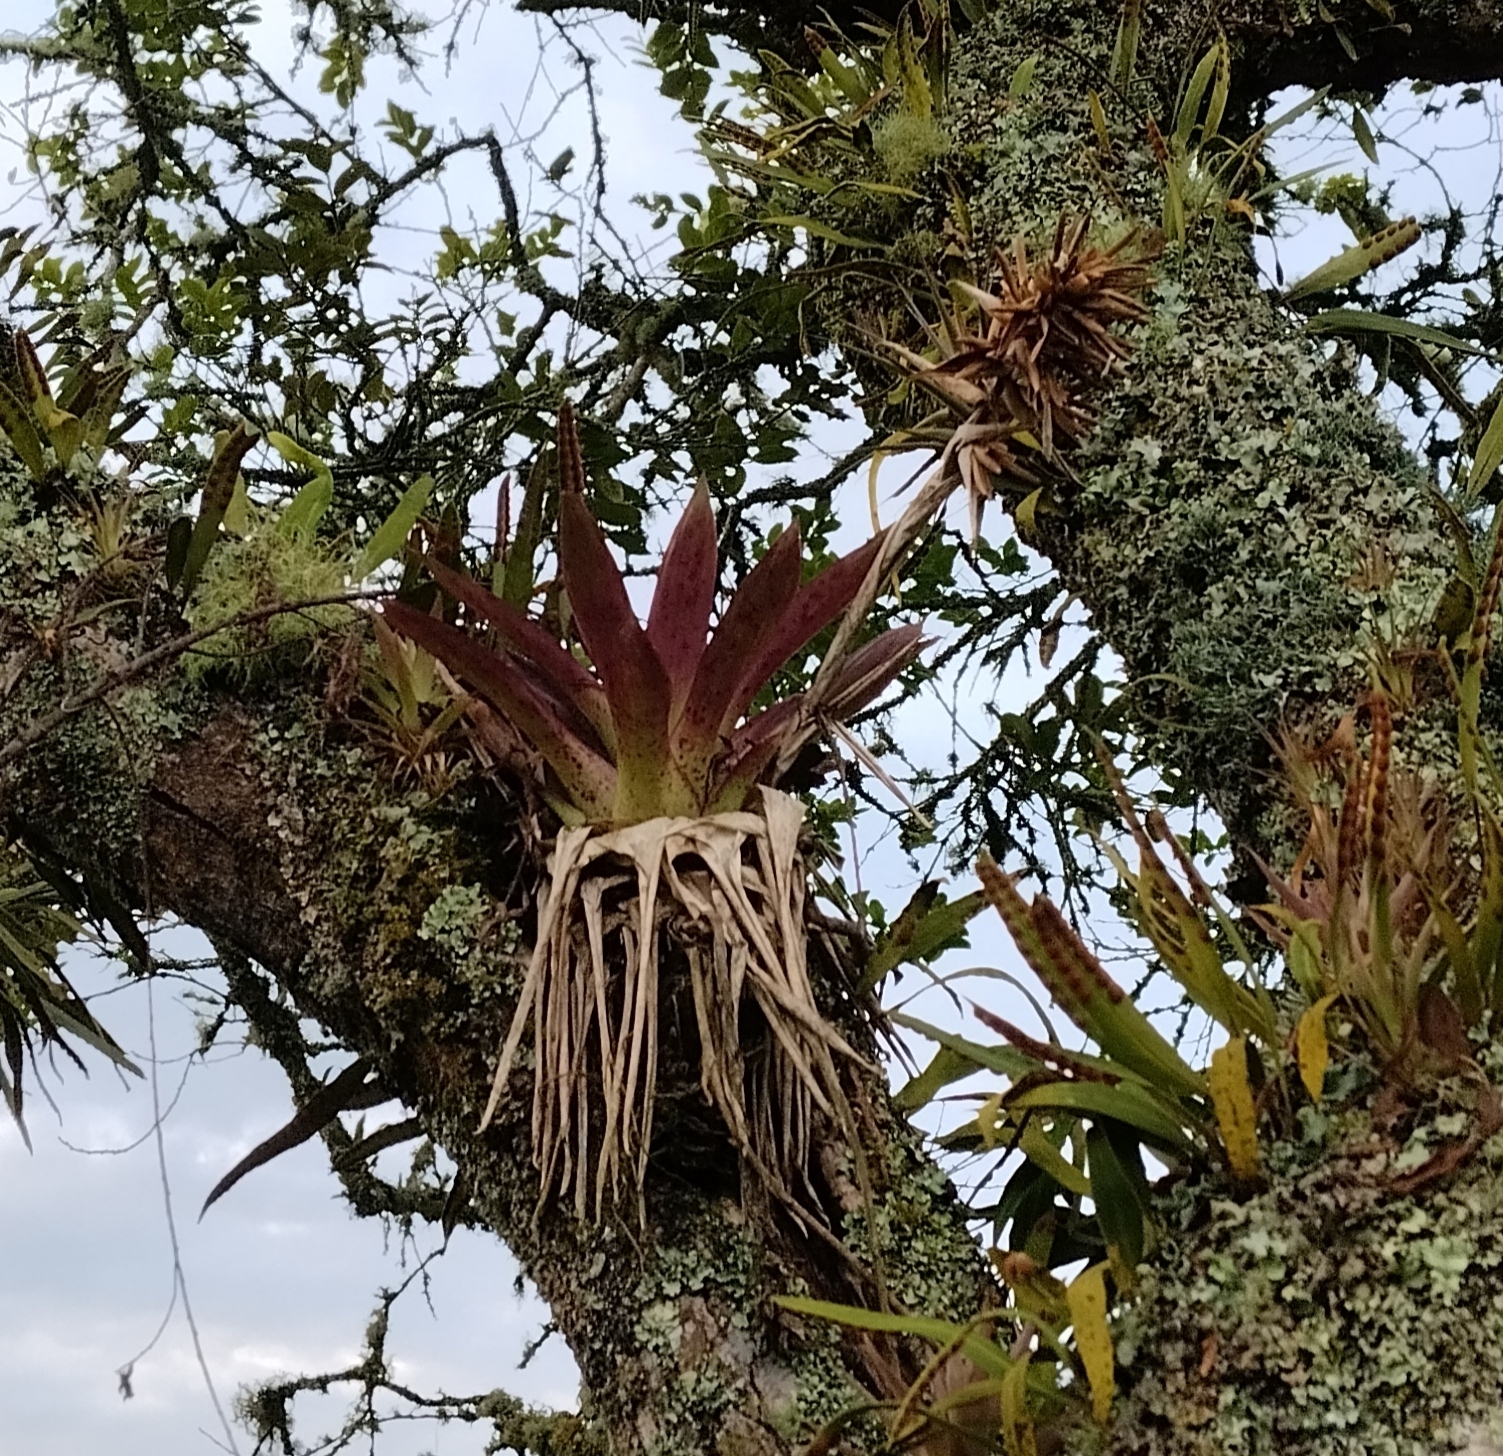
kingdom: Plantae
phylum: Tracheophyta
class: Liliopsida
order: Poales
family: Bromeliaceae
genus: Tillandsia
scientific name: Tillandsia biflora
